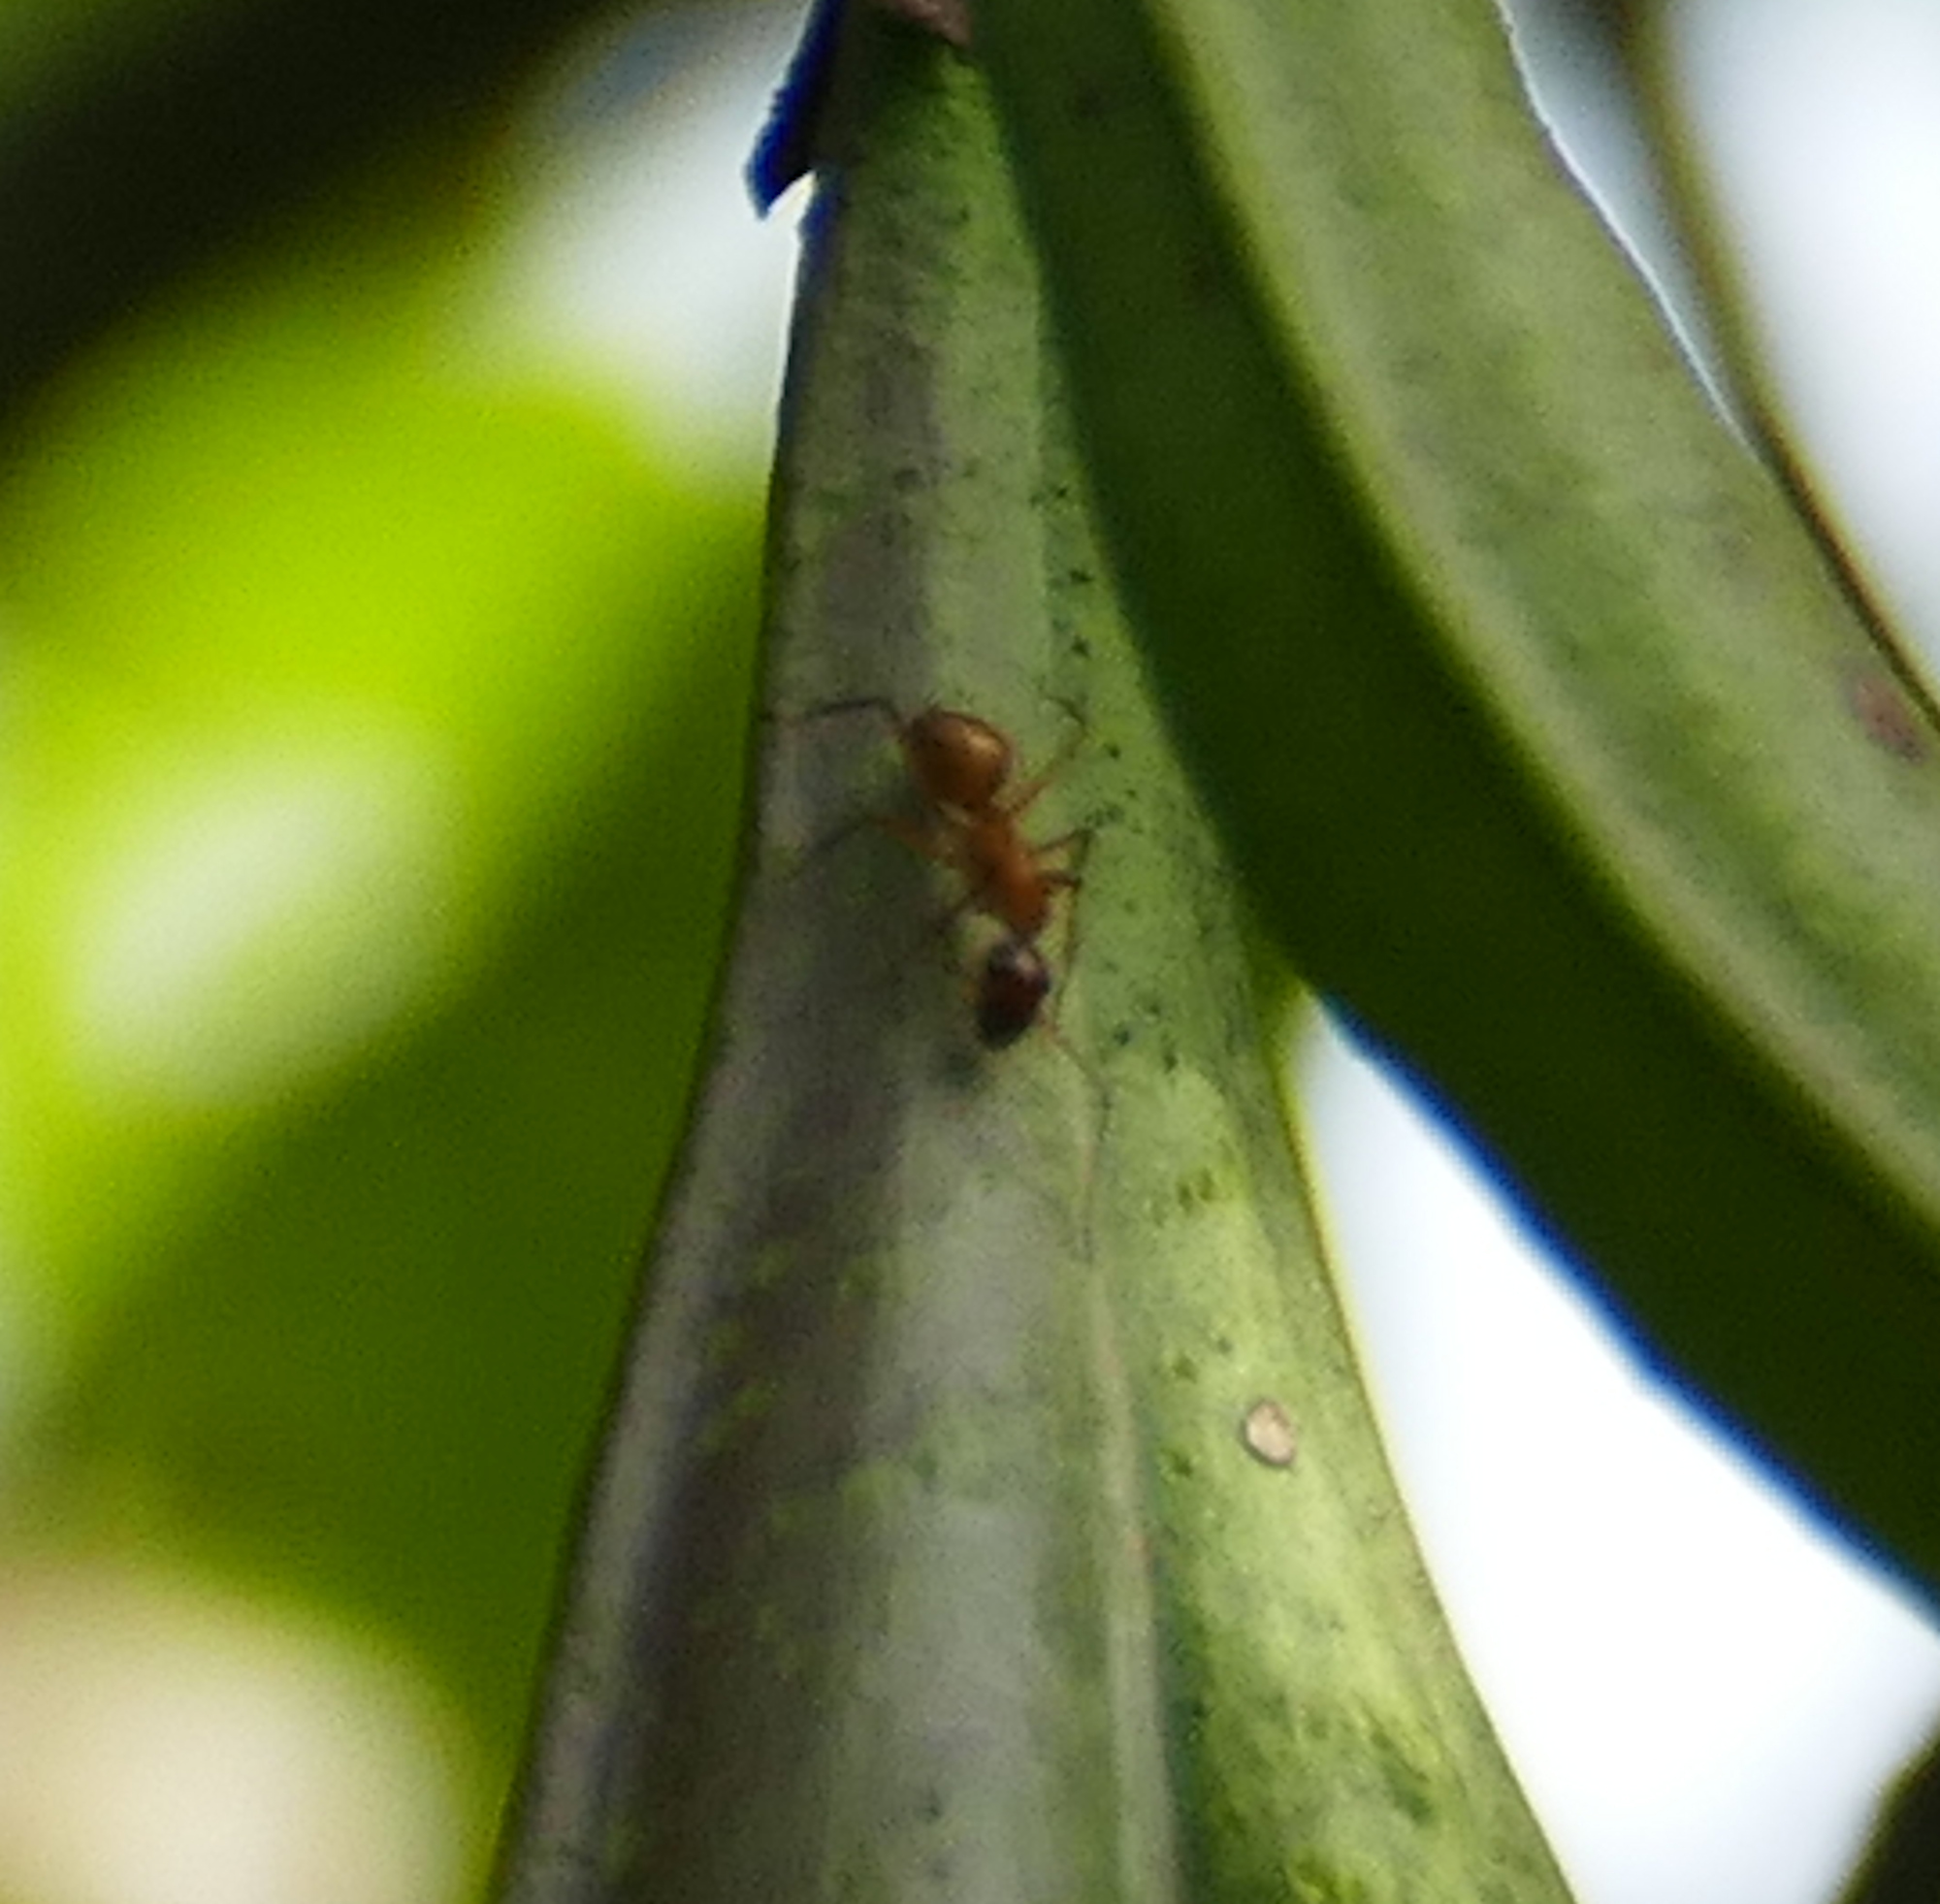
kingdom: Animalia
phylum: Arthropoda
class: Insecta
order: Hymenoptera
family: Formicidae
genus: Camponotus
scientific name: Camponotus castaneus
